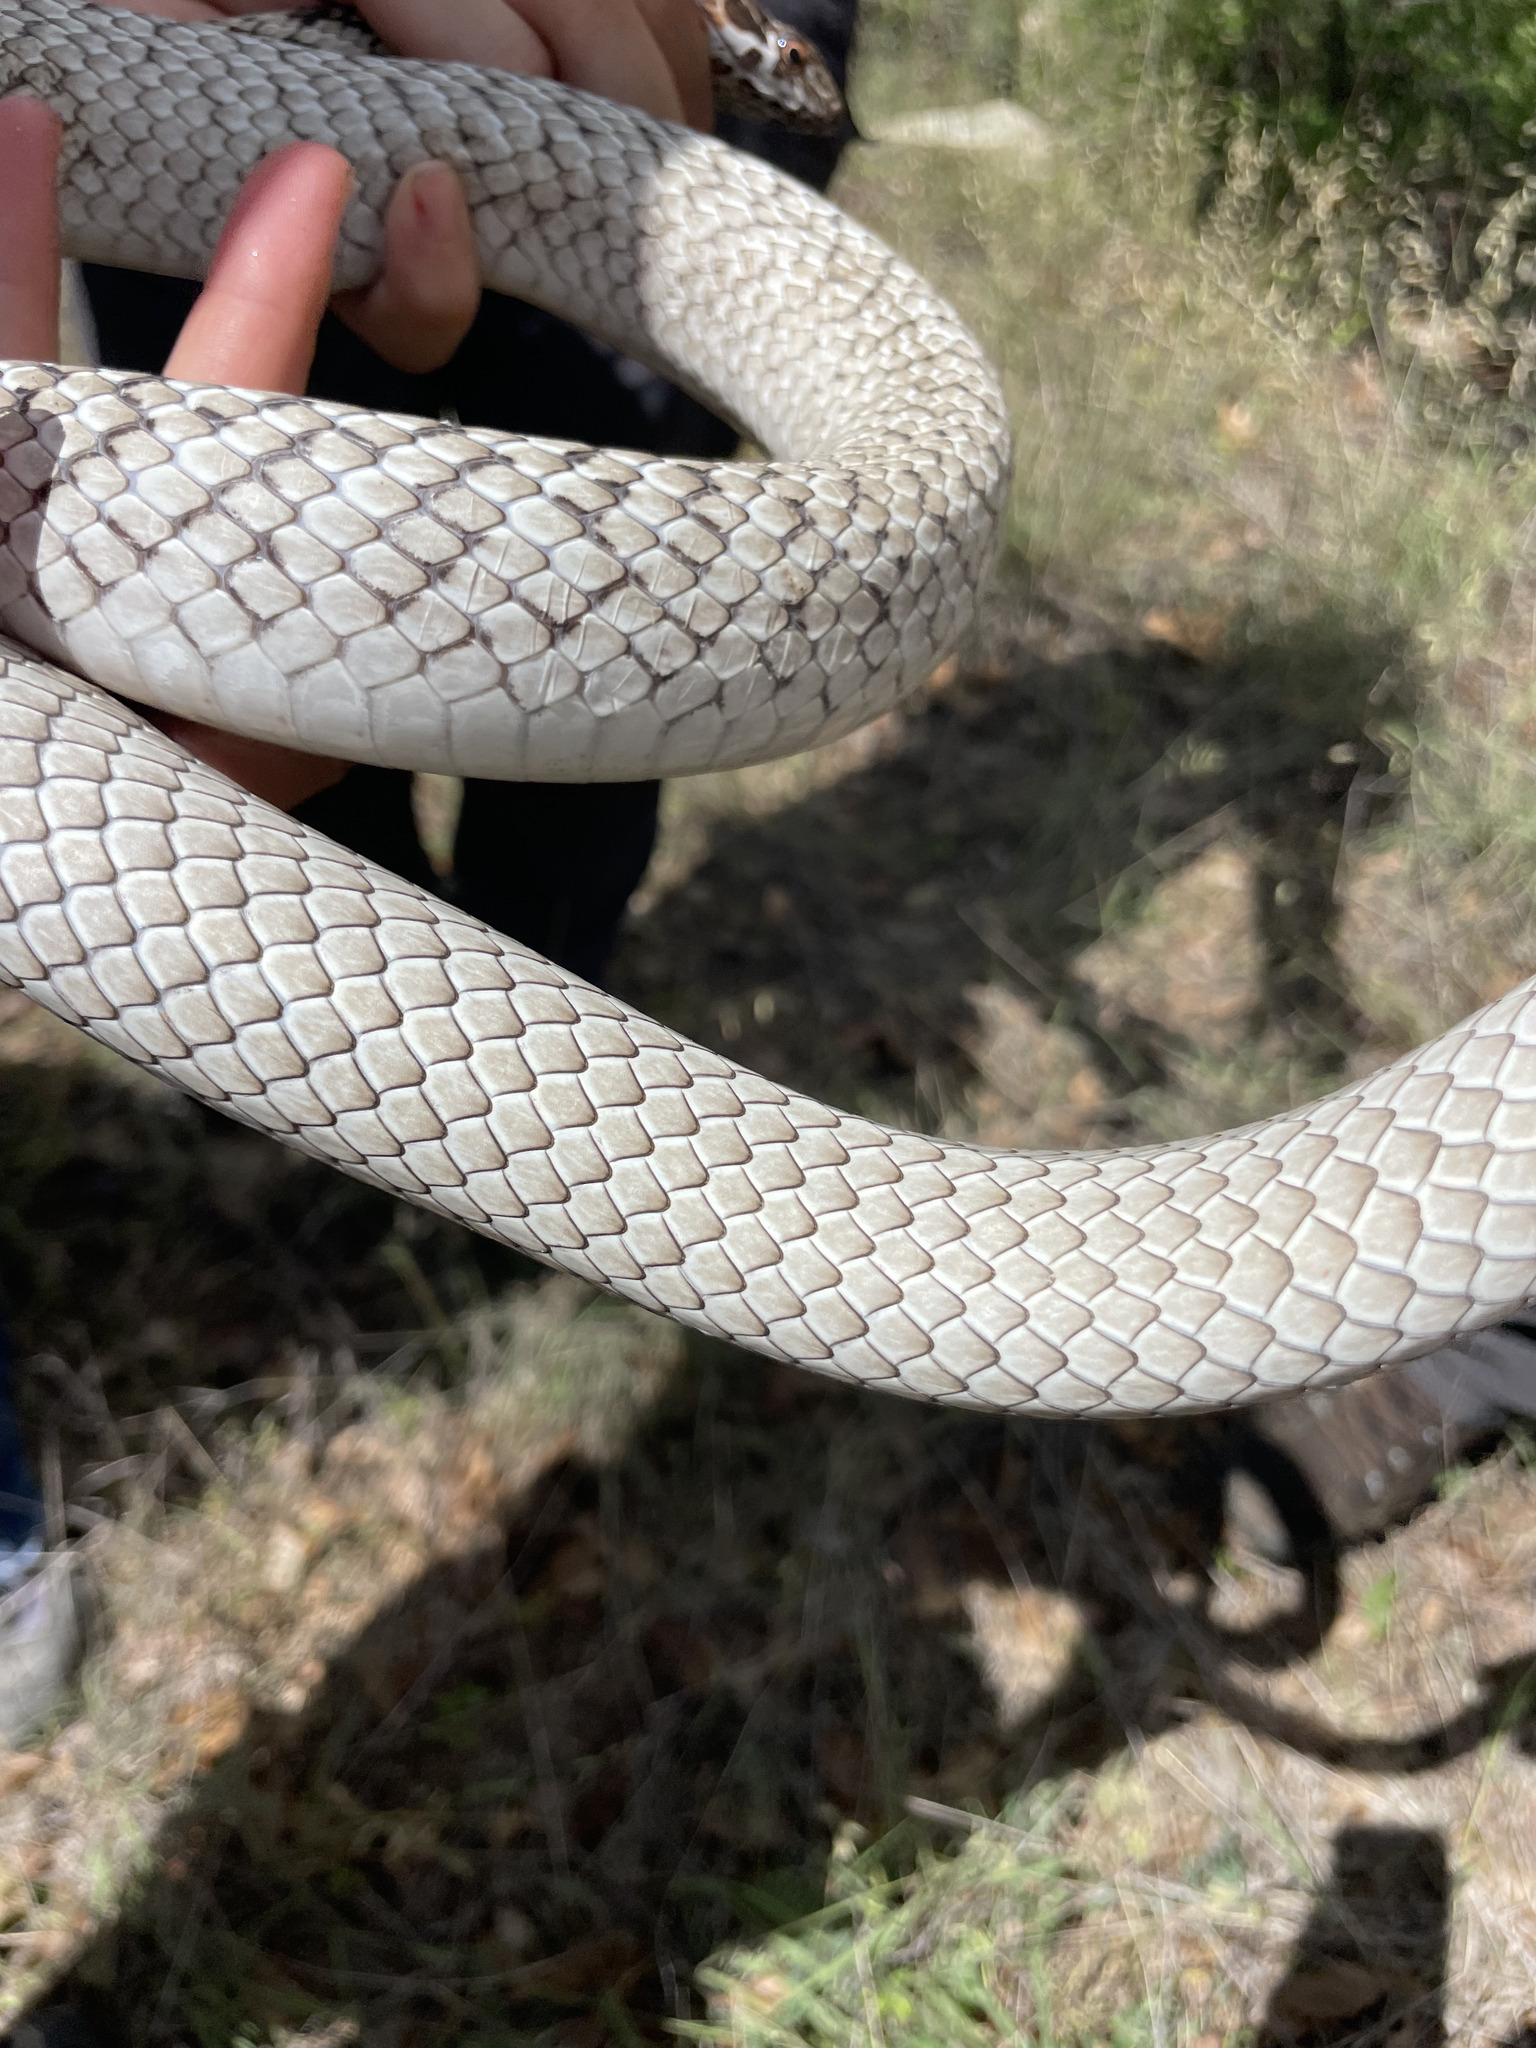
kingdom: Animalia
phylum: Chordata
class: Squamata
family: Colubridae
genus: Masticophis
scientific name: Masticophis fuliginosus
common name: Baja california coachwhip
